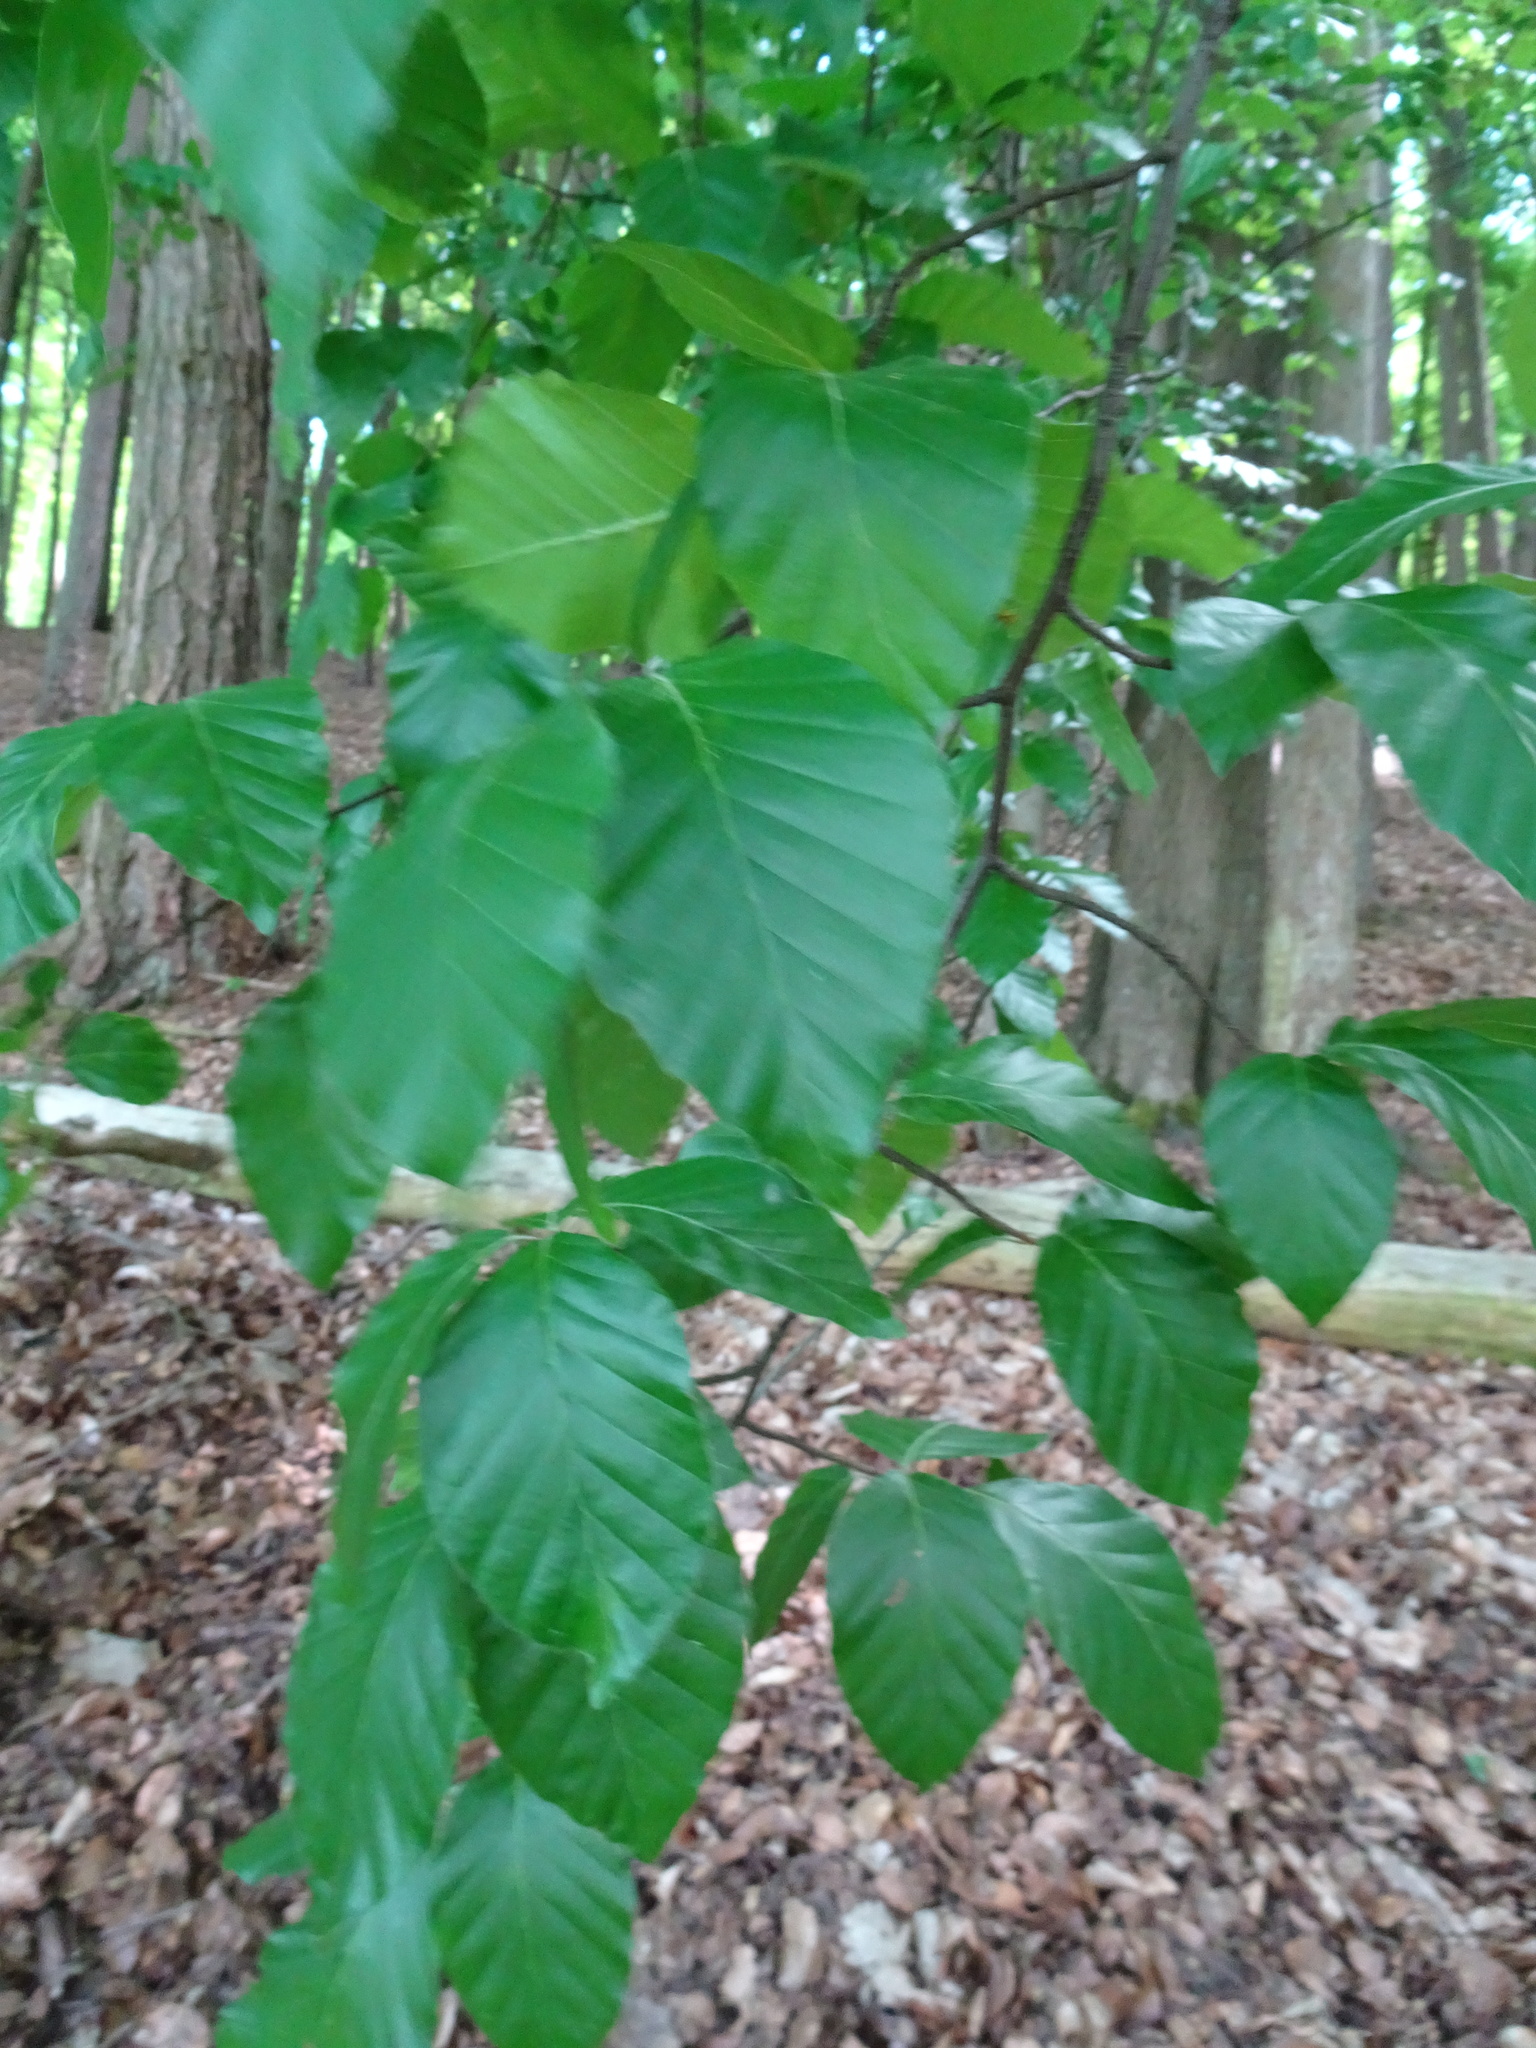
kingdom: Plantae
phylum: Tracheophyta
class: Magnoliopsida
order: Fagales
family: Fagaceae
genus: Fagus
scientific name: Fagus sylvatica
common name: Beech
